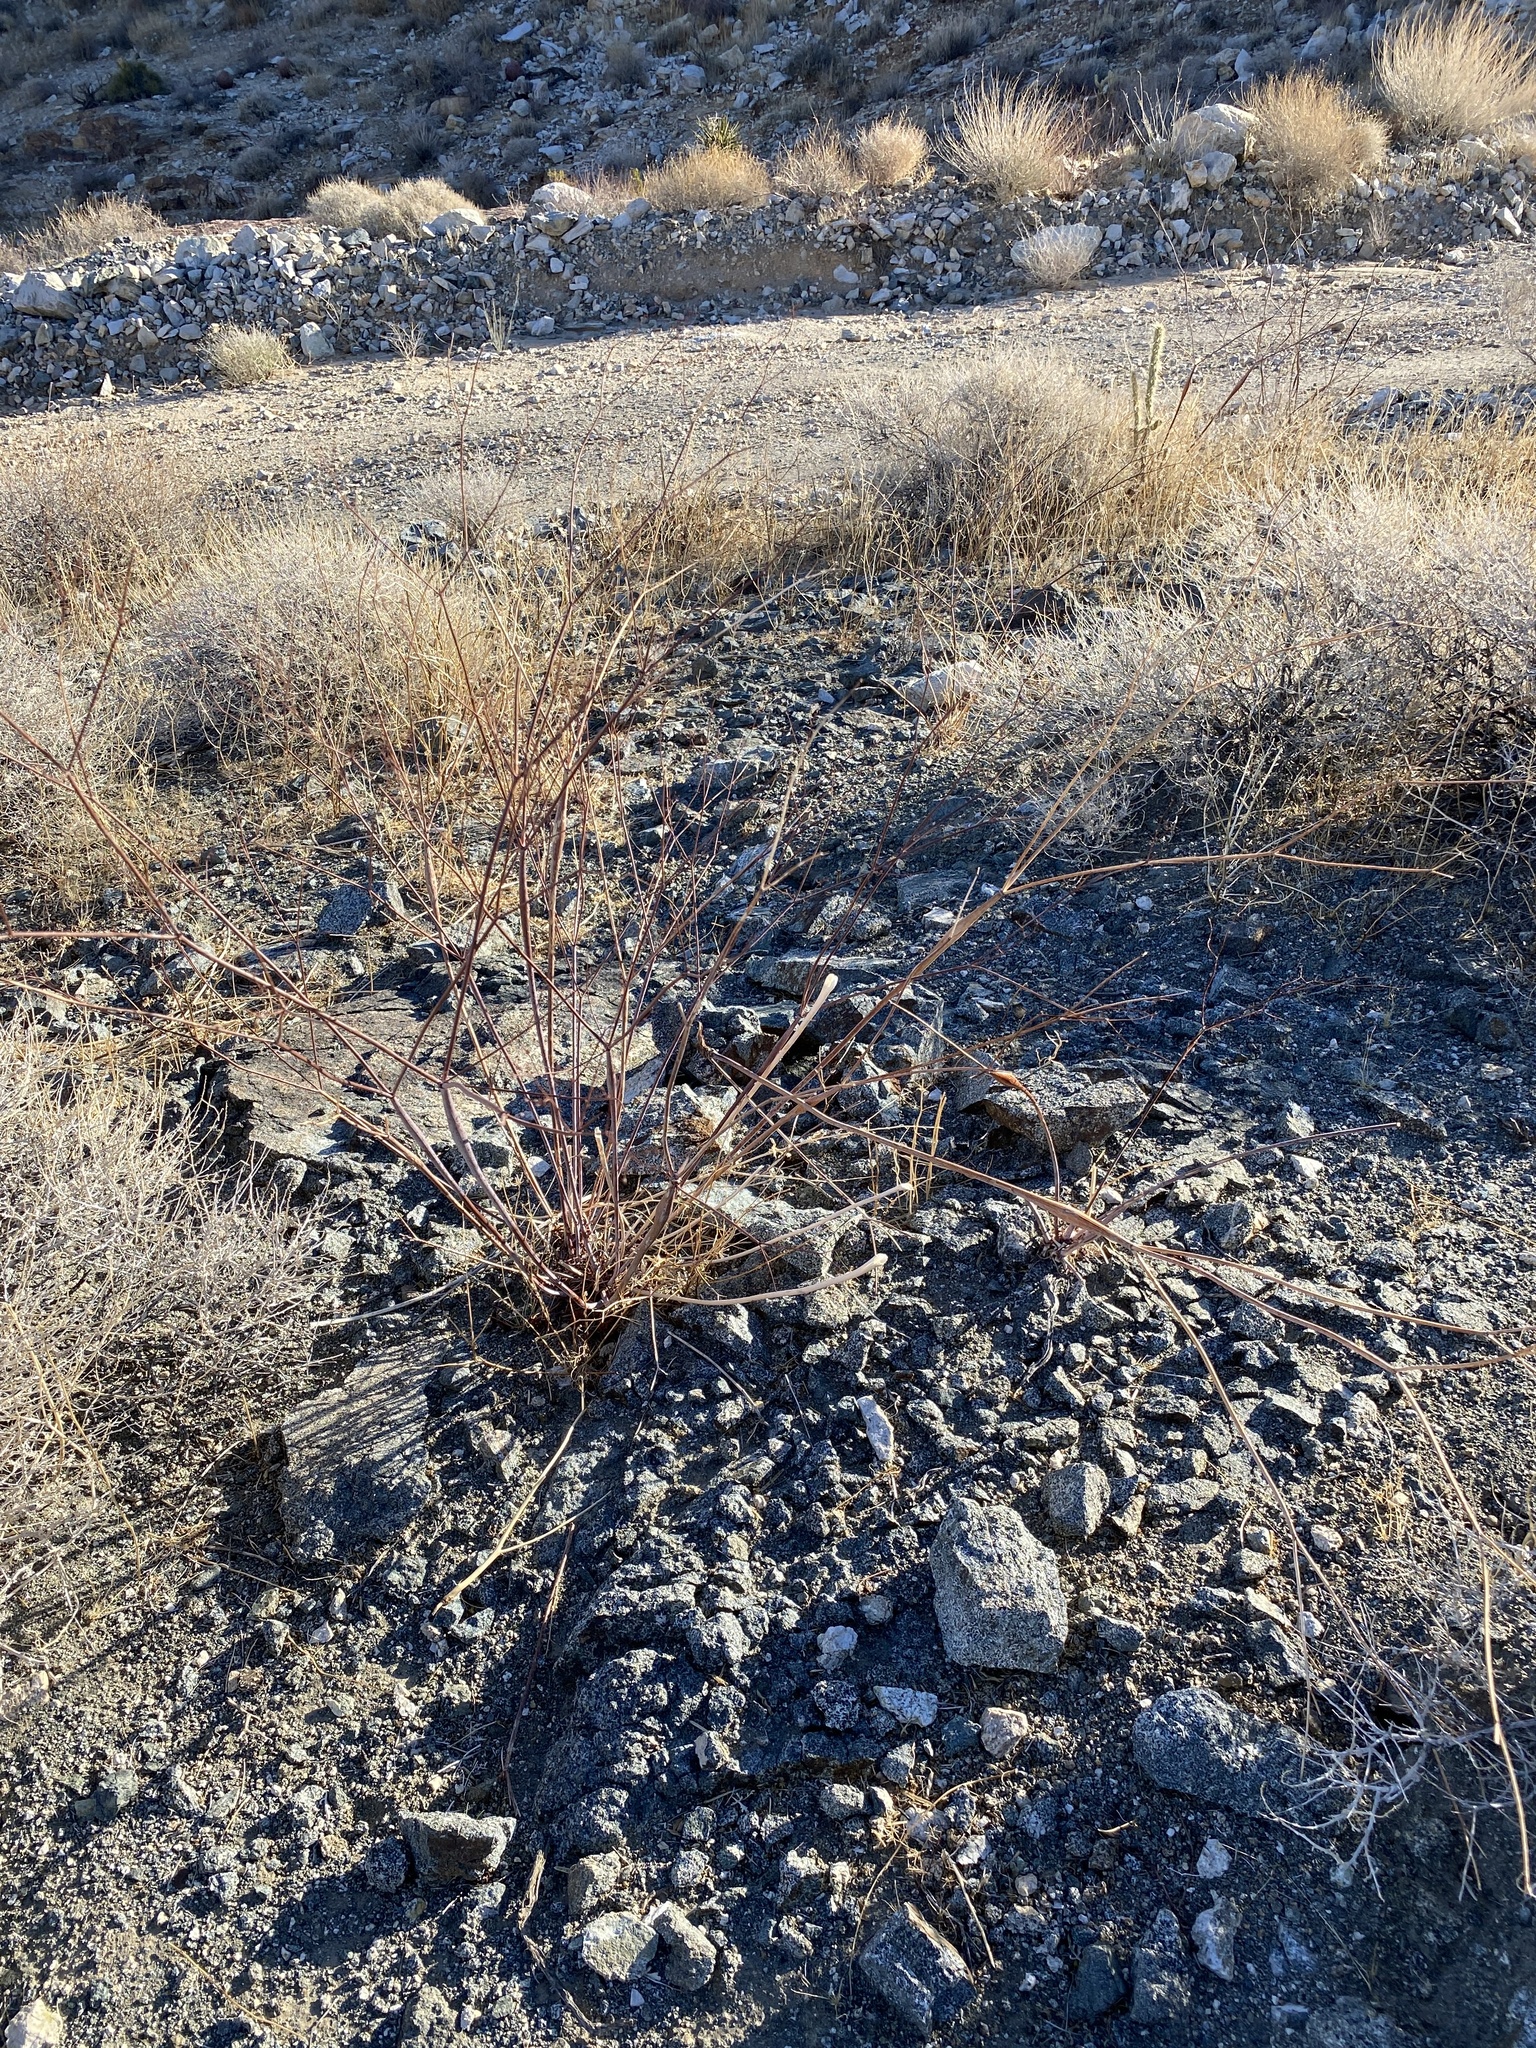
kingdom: Plantae
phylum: Tracheophyta
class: Magnoliopsida
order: Caryophyllales
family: Polygonaceae
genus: Eriogonum
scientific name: Eriogonum inflatum
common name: Desert trumpet
